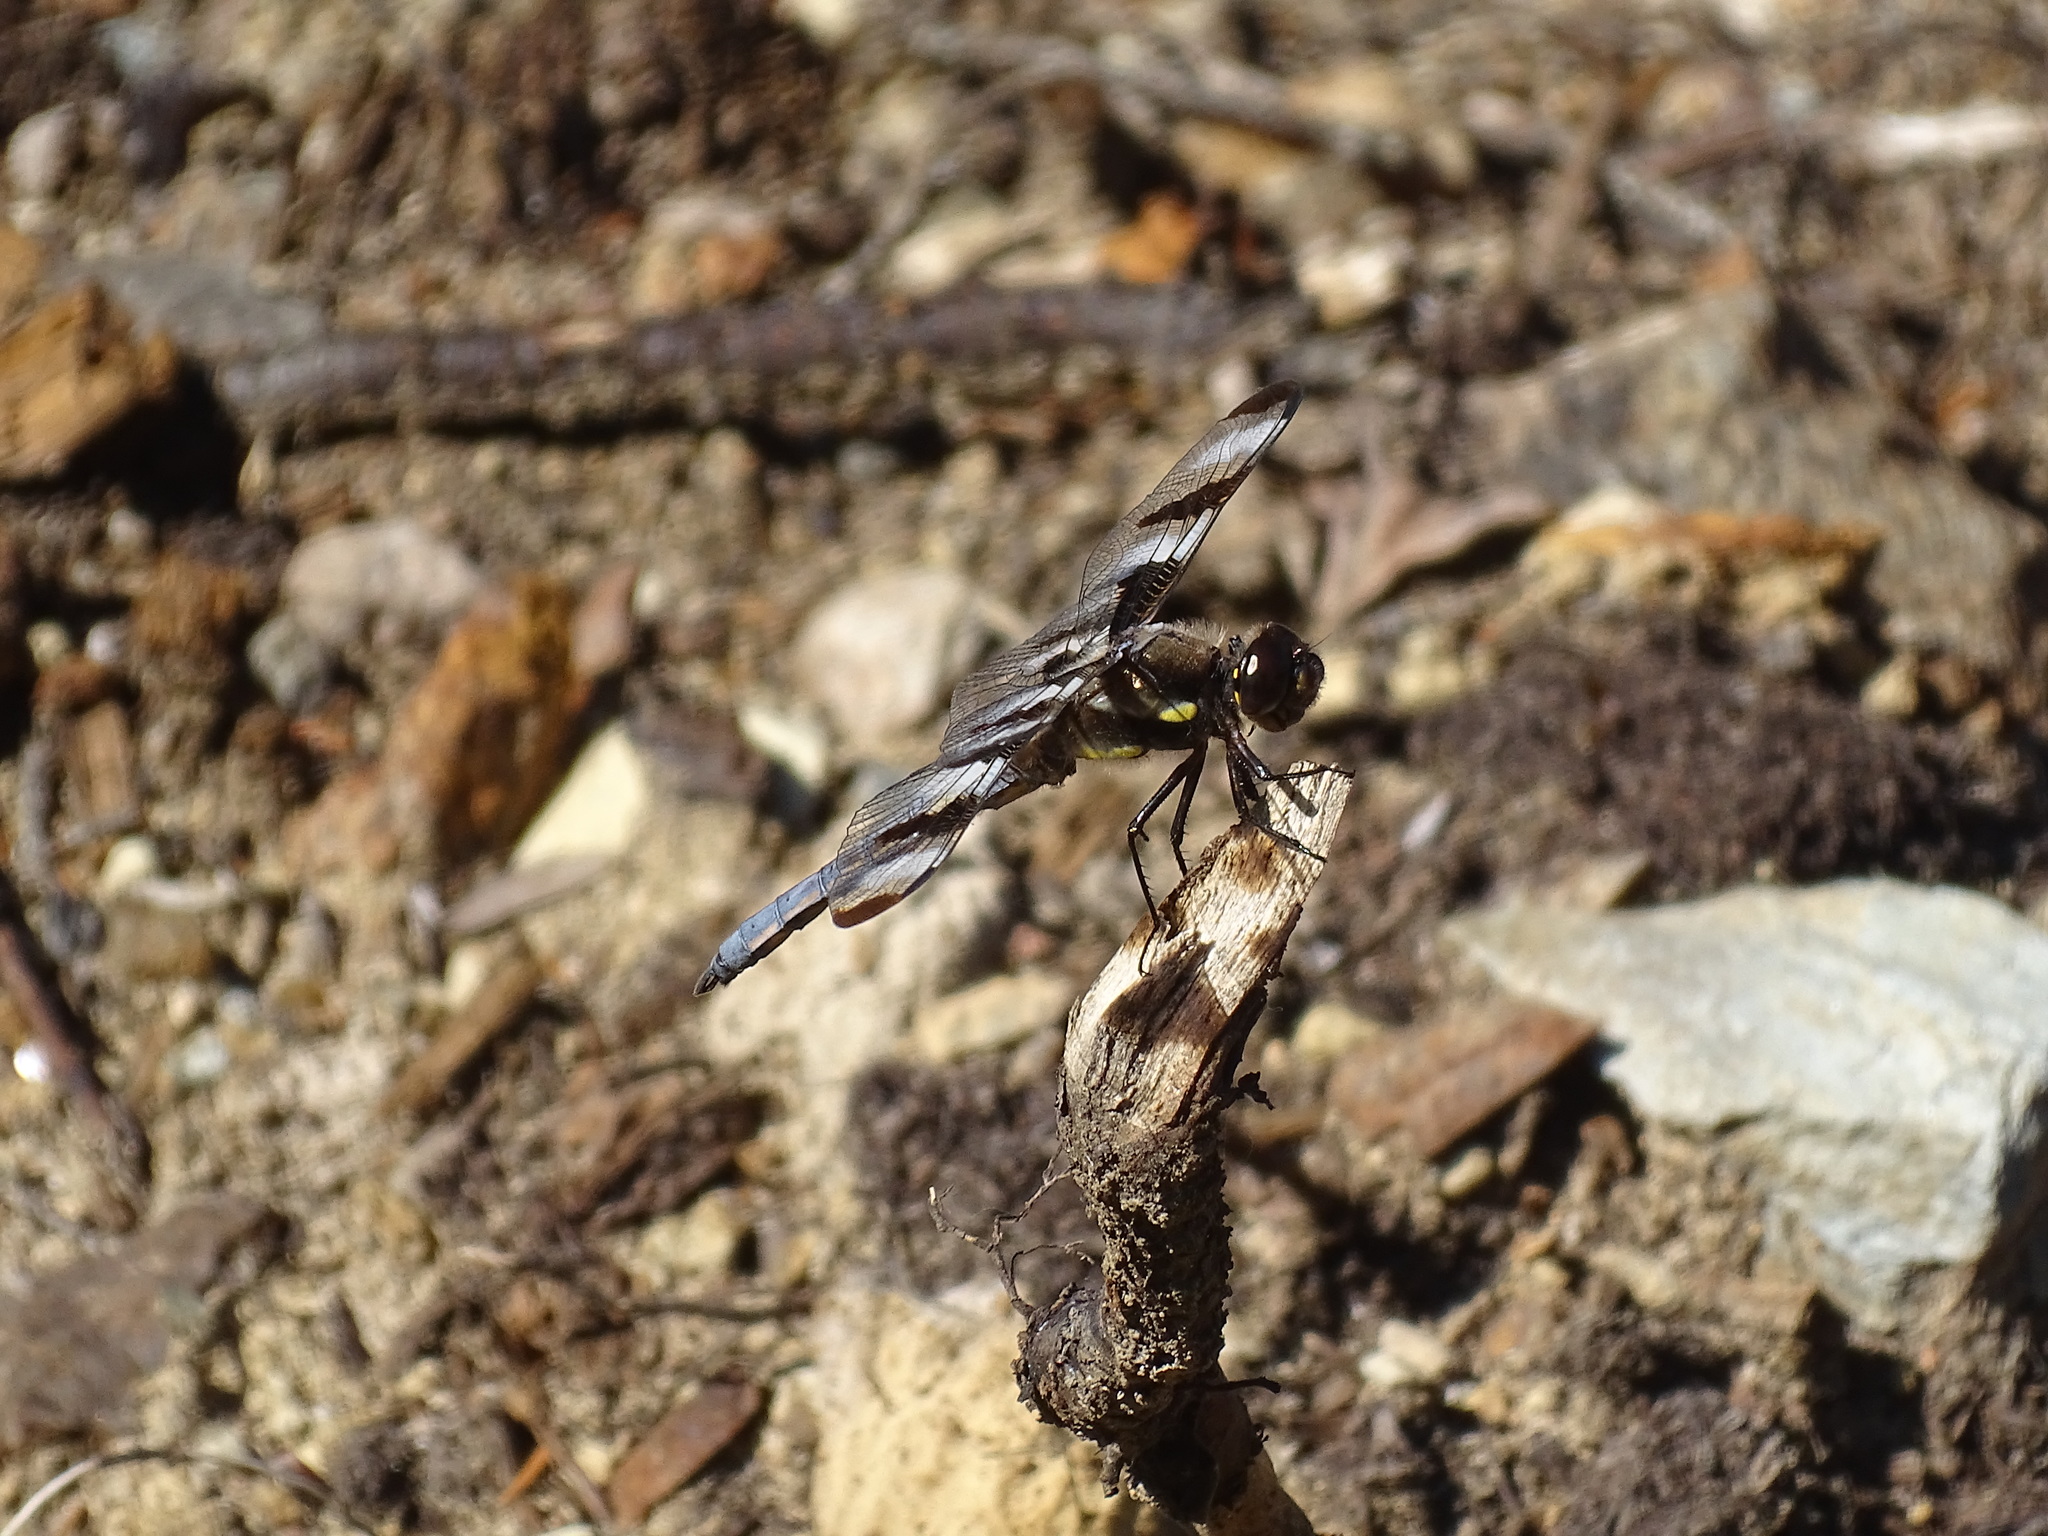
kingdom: Animalia
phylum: Arthropoda
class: Insecta
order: Odonata
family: Libellulidae
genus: Libellula
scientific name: Libellula pulchella
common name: Twelve-spotted skimmer
